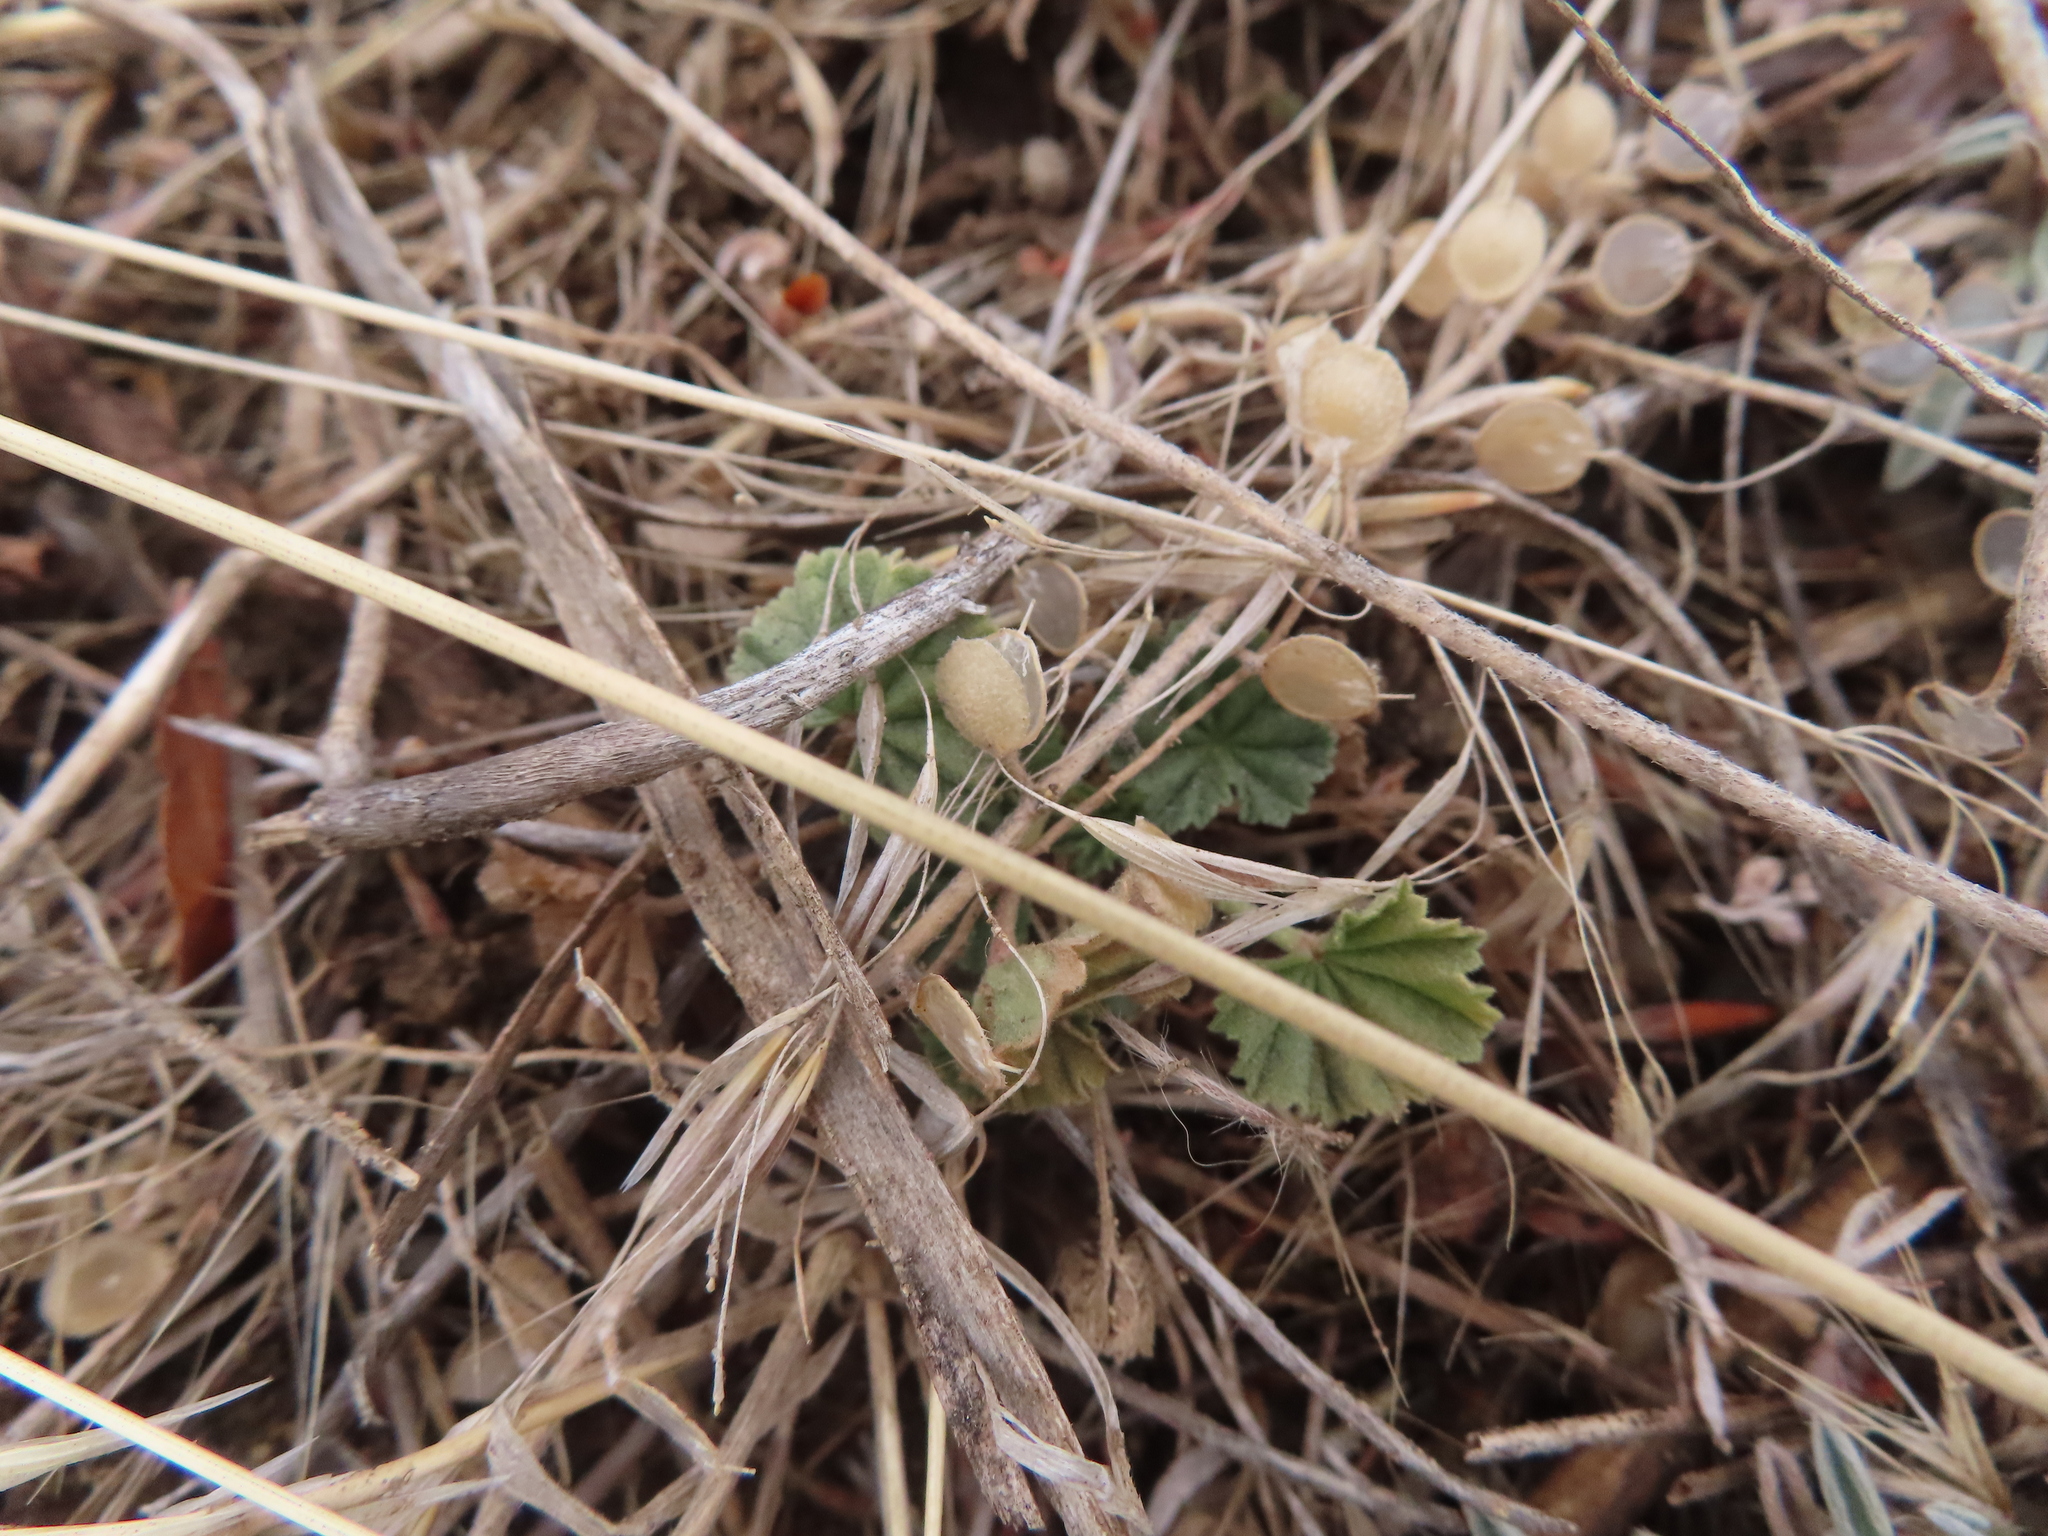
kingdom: Plantae
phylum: Tracheophyta
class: Magnoliopsida
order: Malvales
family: Malvaceae
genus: Malva
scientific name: Malva neglecta
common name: Common mallow
